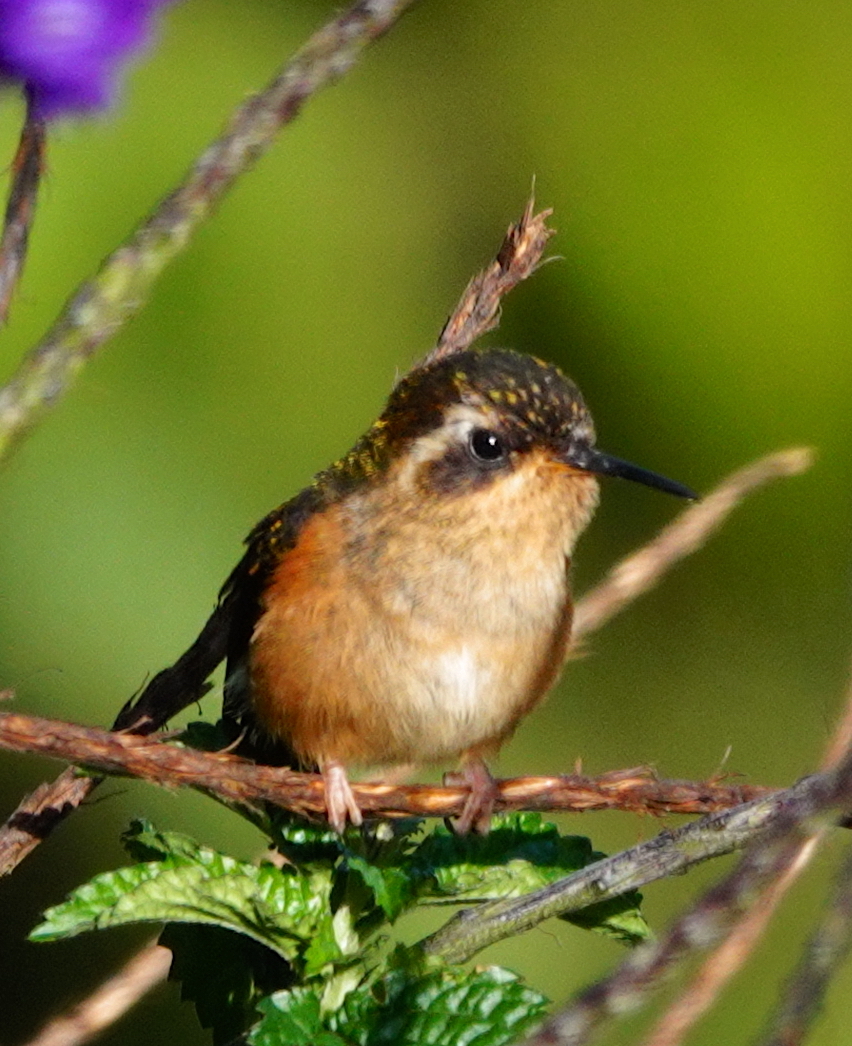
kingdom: Animalia
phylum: Chordata
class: Aves
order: Apodiformes
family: Trochilidae
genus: Adelomyia
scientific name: Adelomyia melanogenys
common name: Speckled hummingbird
